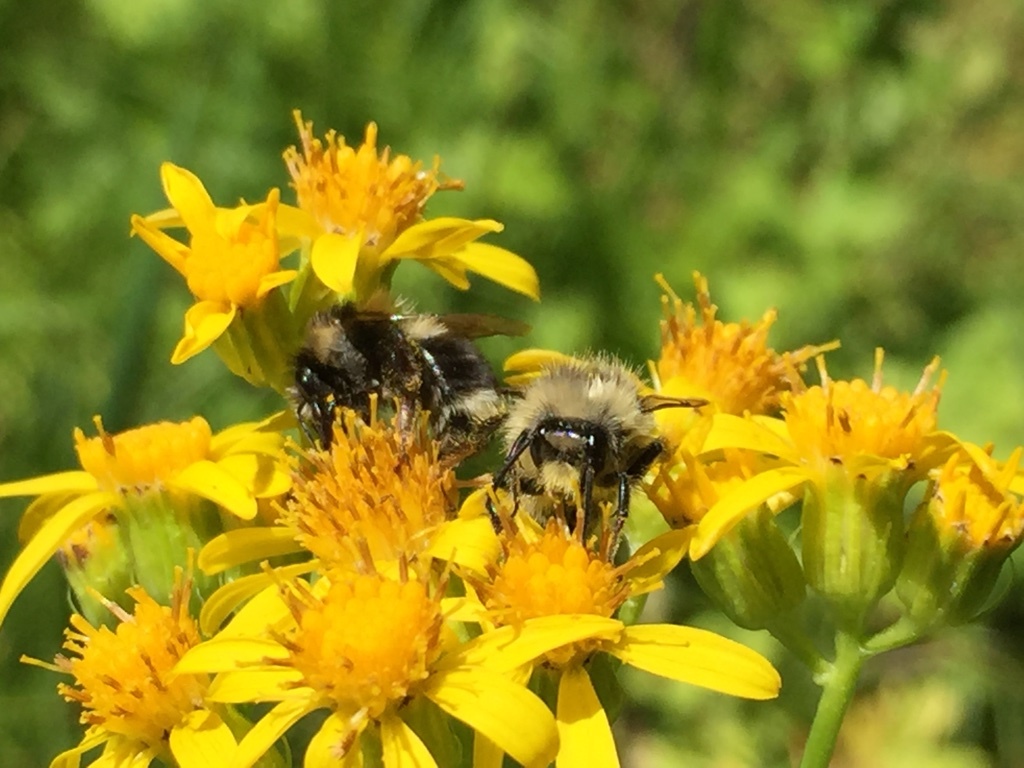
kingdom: Animalia
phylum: Arthropoda
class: Insecta
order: Hymenoptera
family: Apidae
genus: Bombus
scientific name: Bombus vancouverensis
